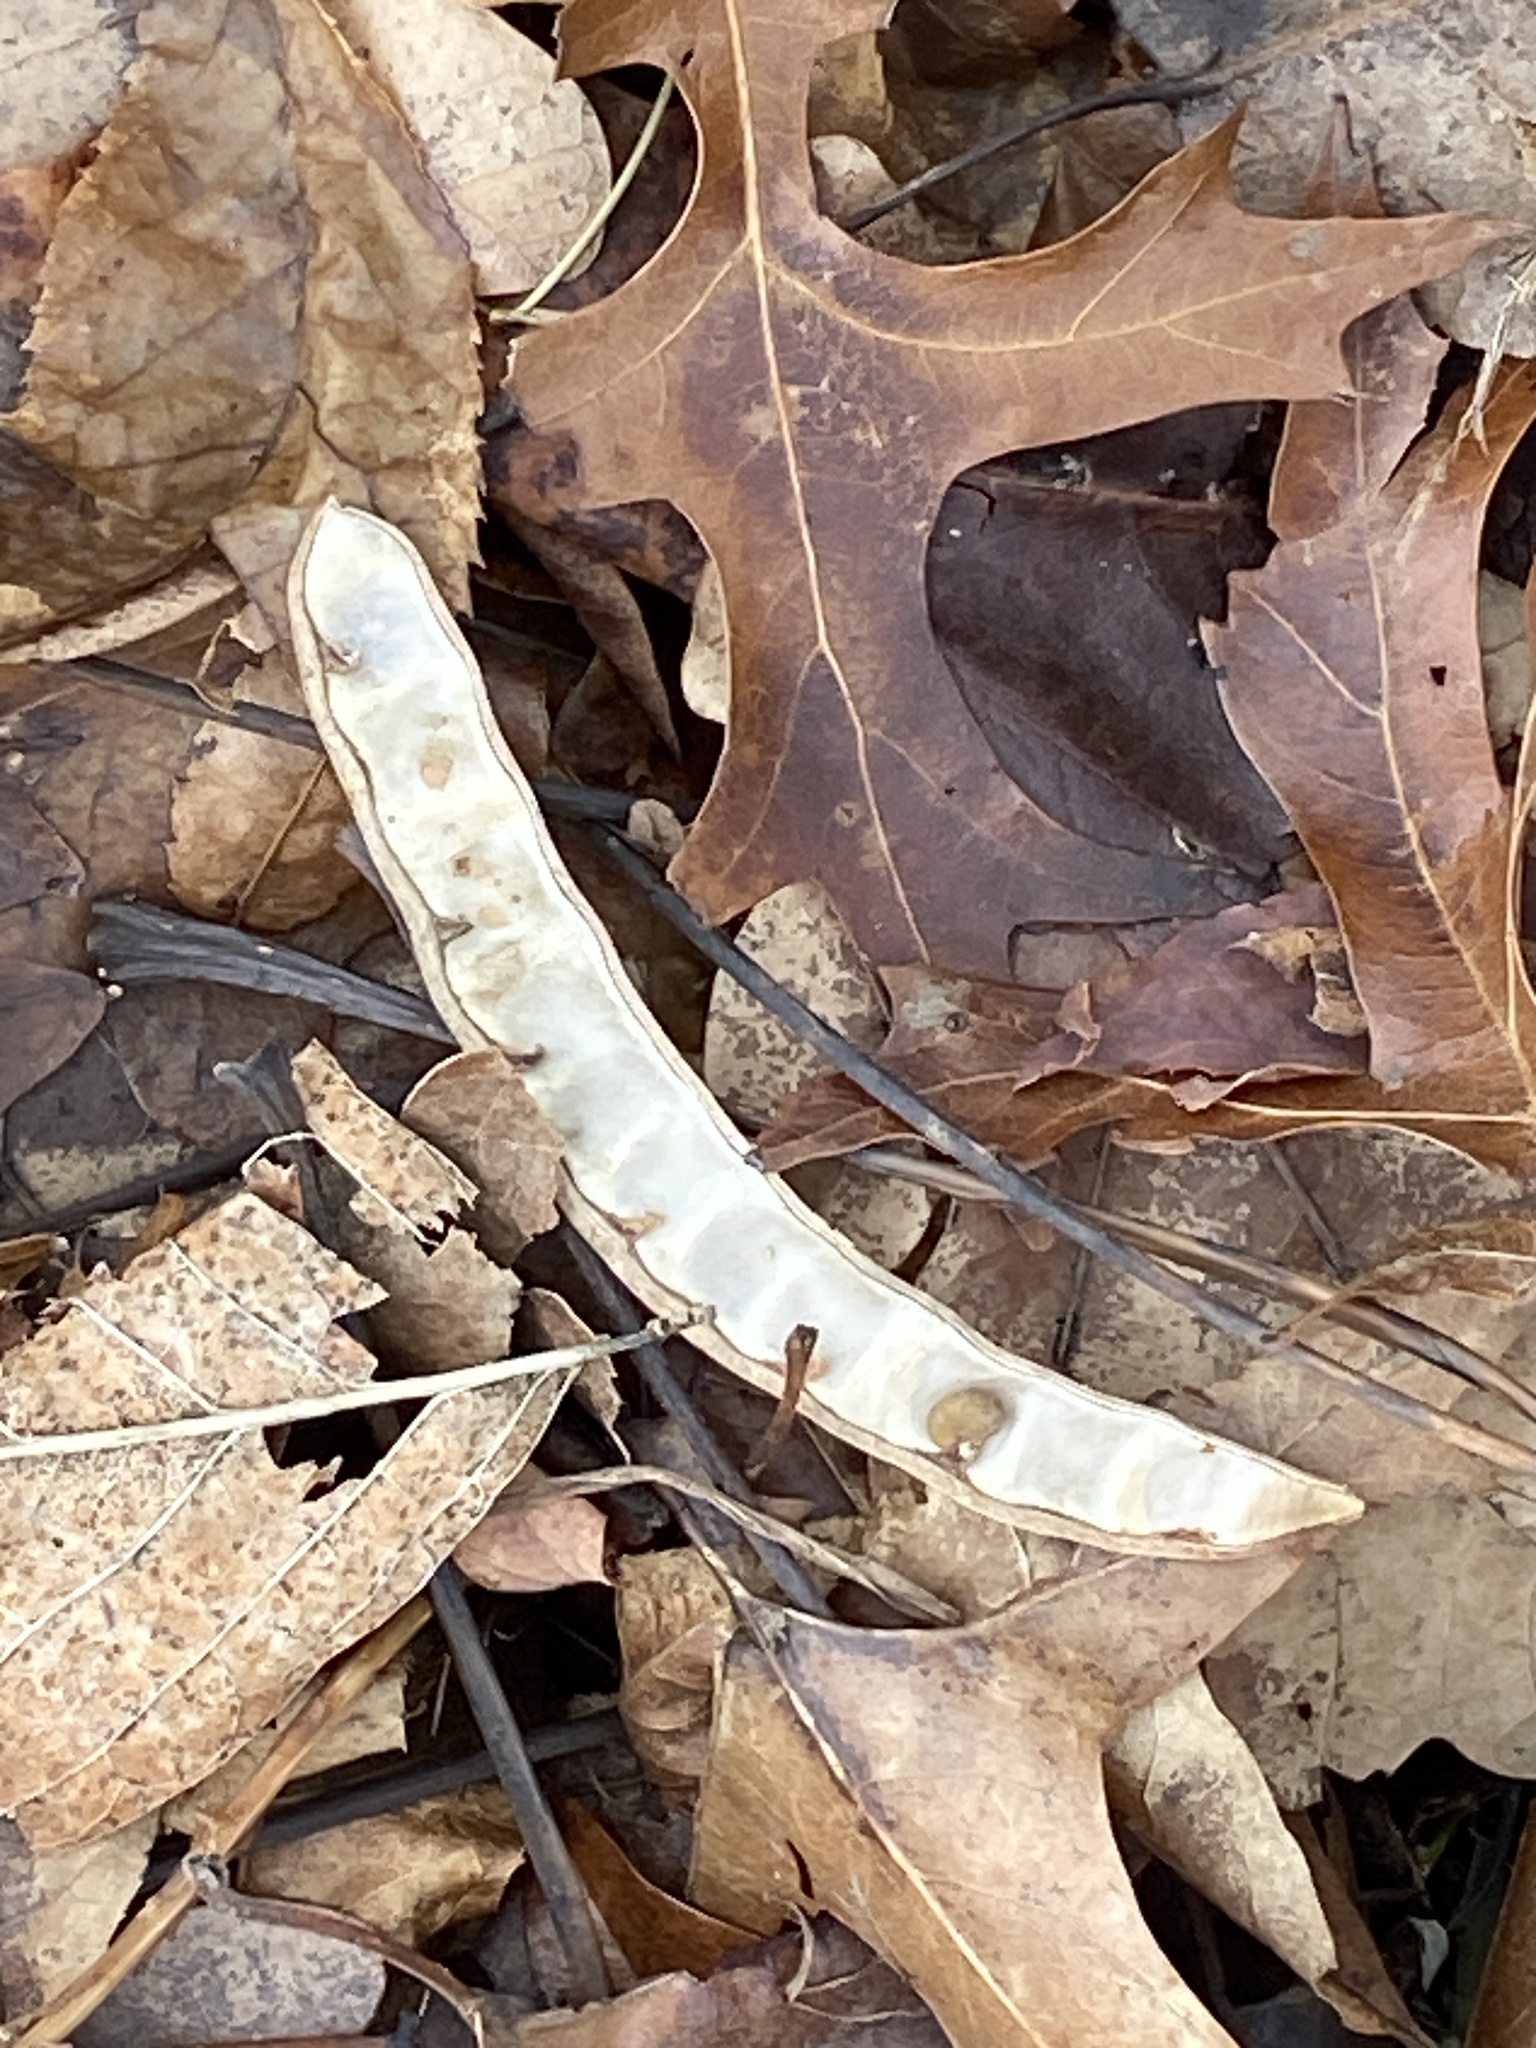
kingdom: Plantae
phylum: Tracheophyta
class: Magnoliopsida
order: Fabales
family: Fabaceae
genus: Robinia
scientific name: Robinia pseudoacacia
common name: Black locust
